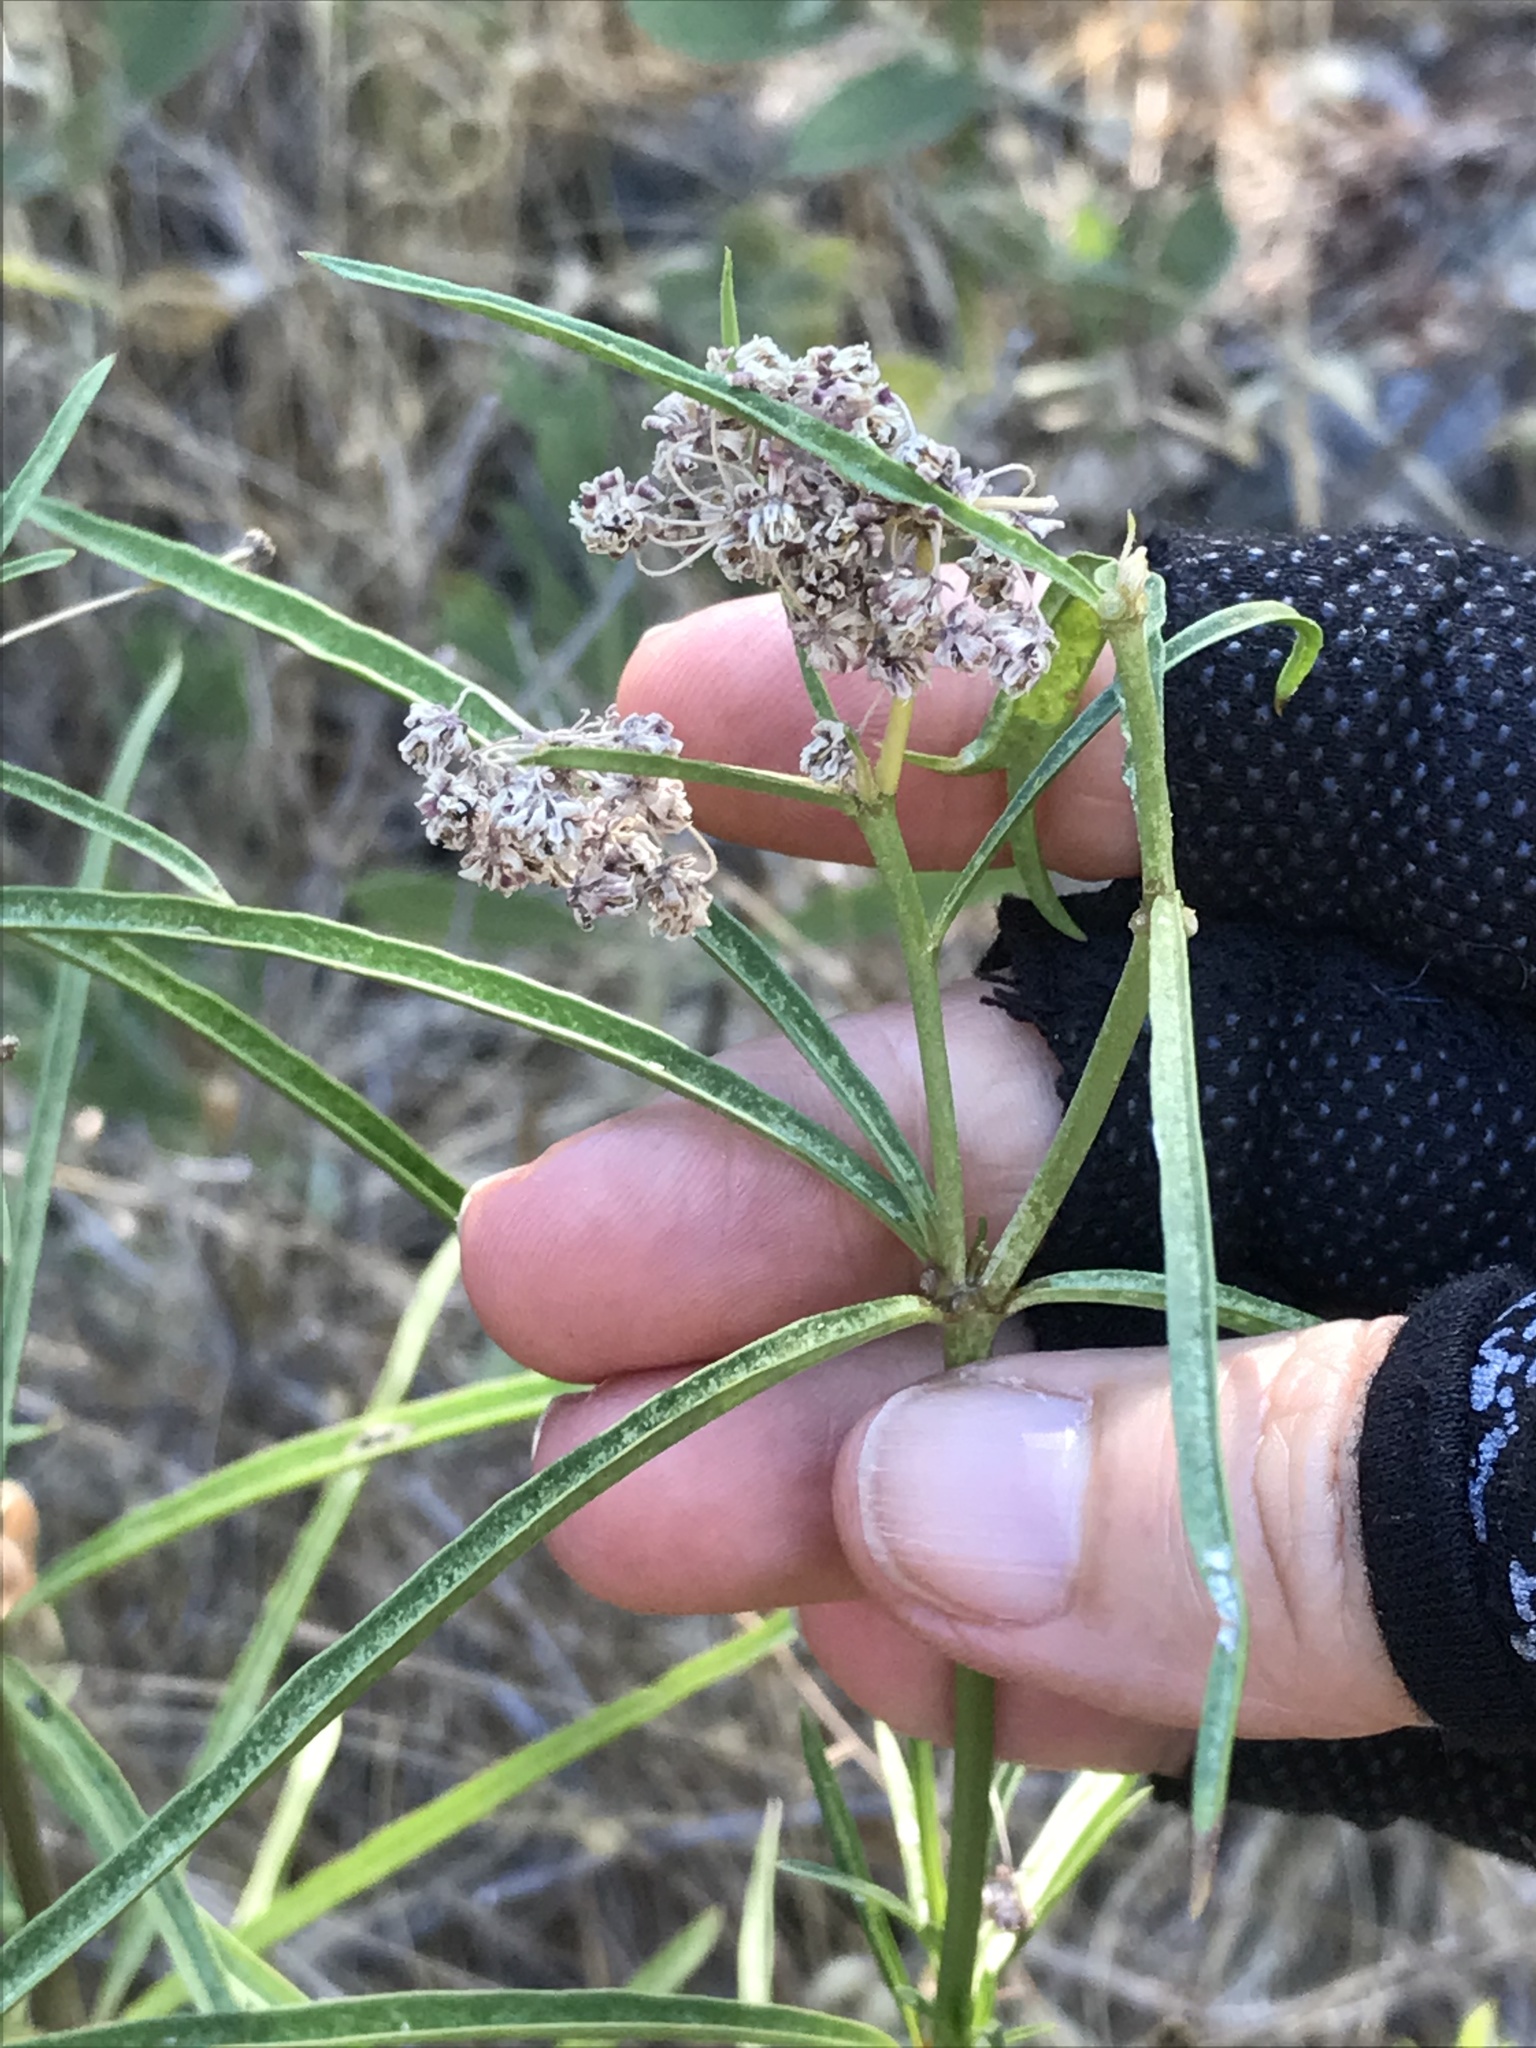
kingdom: Plantae
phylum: Tracheophyta
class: Magnoliopsida
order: Gentianales
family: Apocynaceae
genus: Asclepias
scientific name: Asclepias fascicularis
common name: Mexican milkweed
